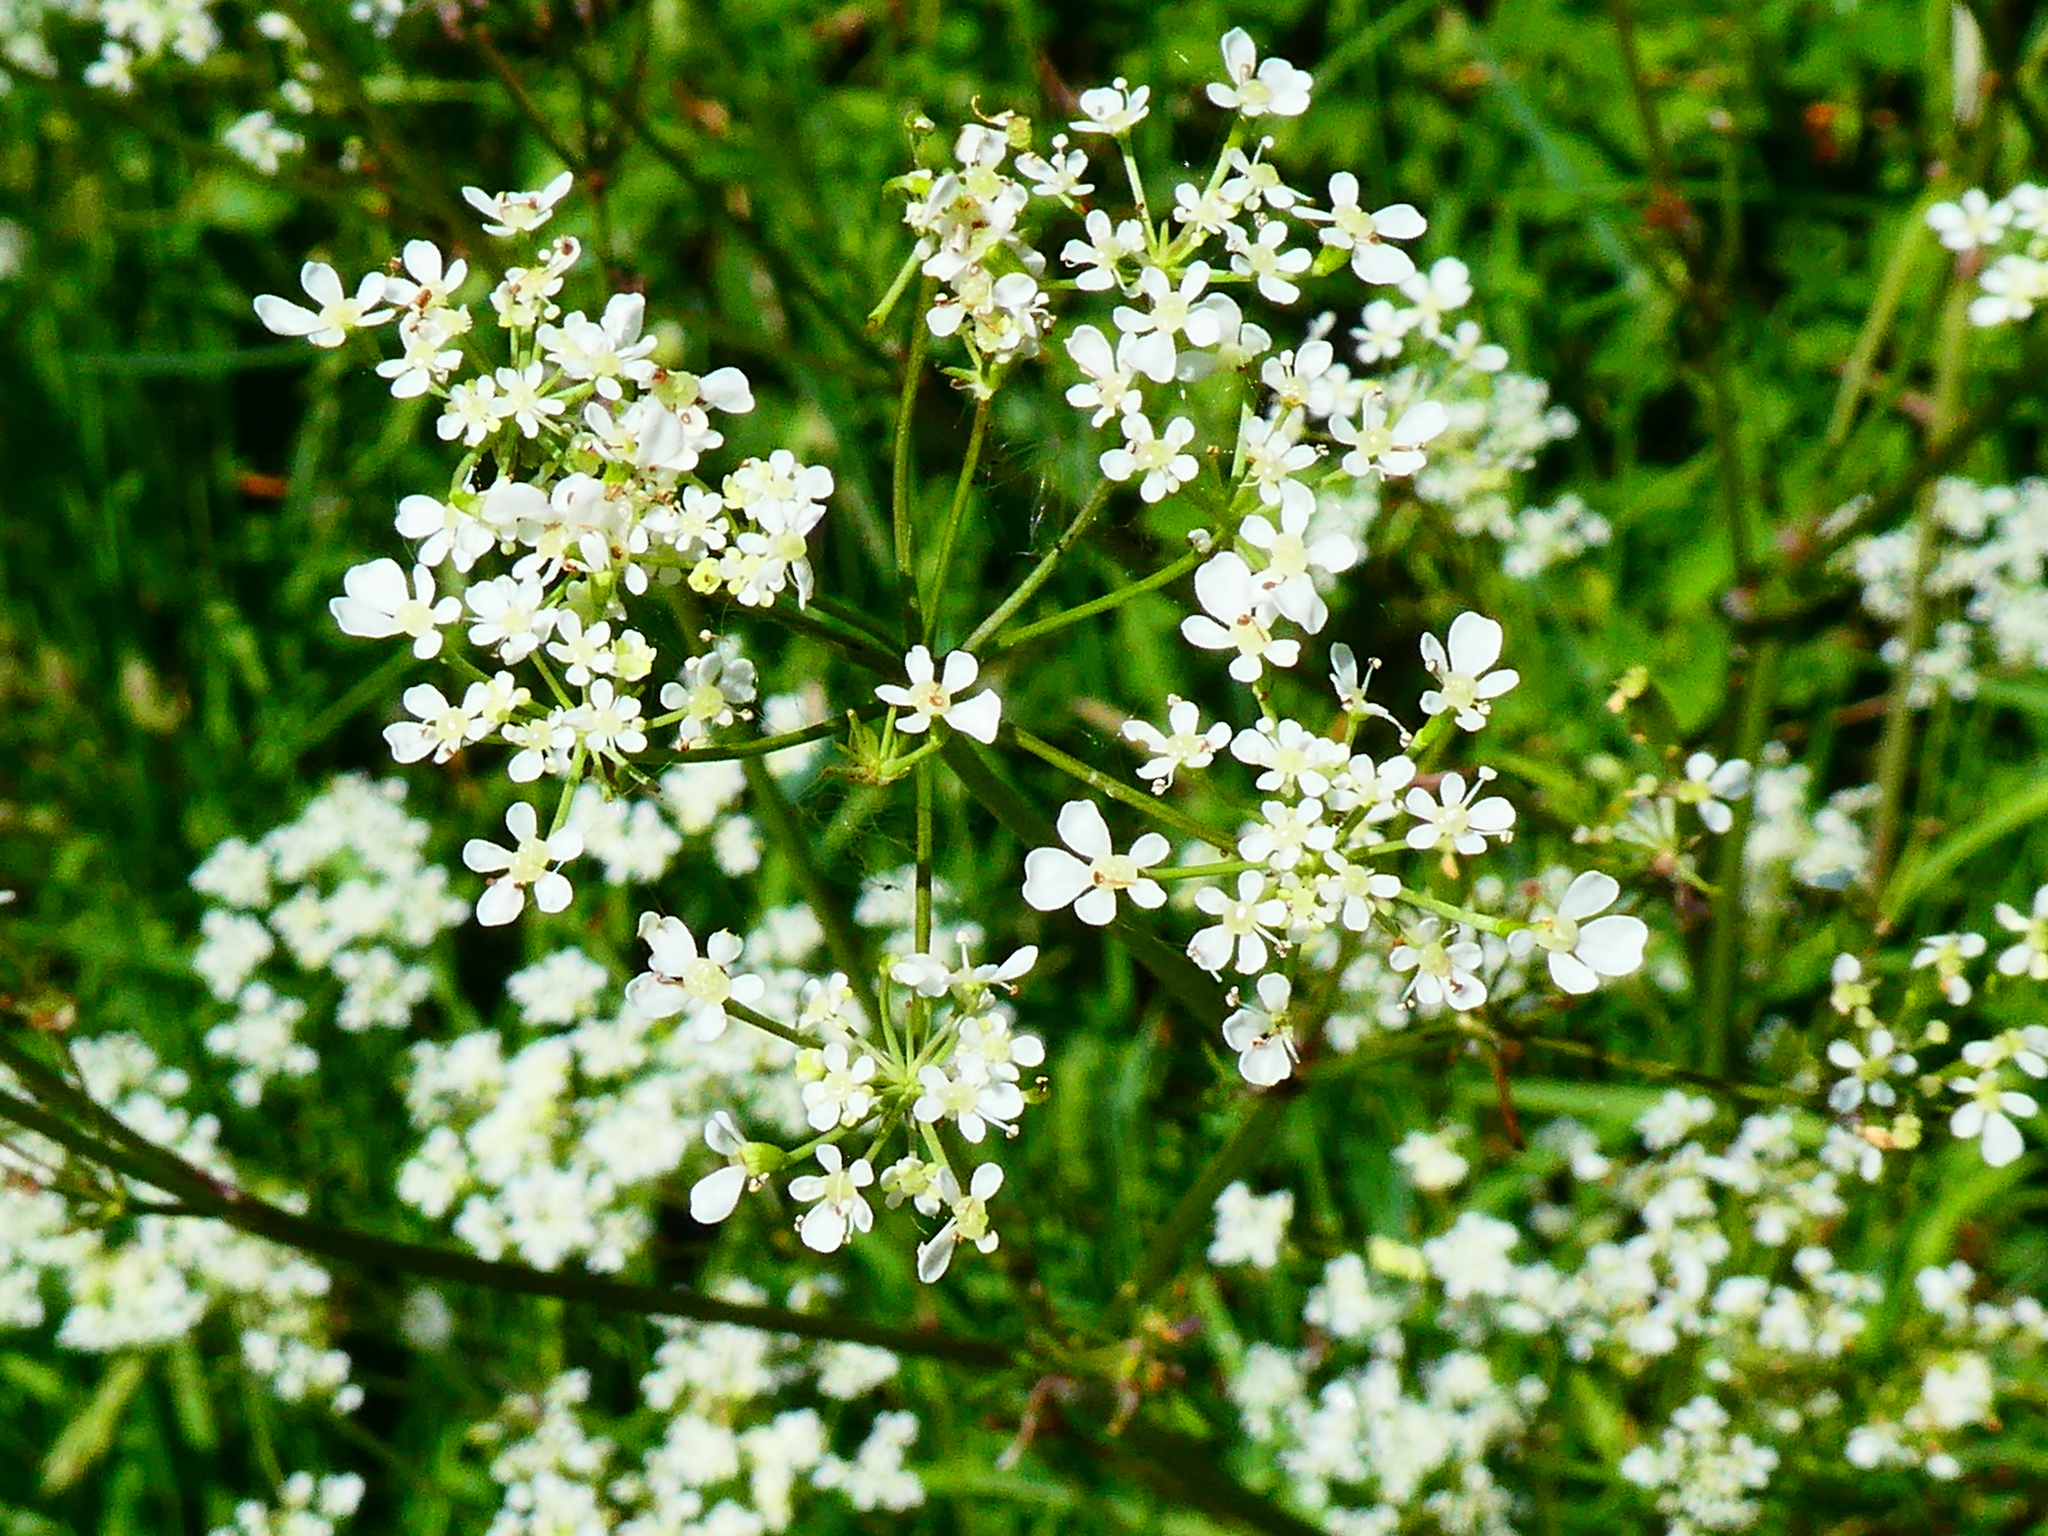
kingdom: Plantae
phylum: Tracheophyta
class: Magnoliopsida
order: Apiales
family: Apiaceae
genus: Anthriscus
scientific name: Anthriscus sylvestris
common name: Cow parsley
